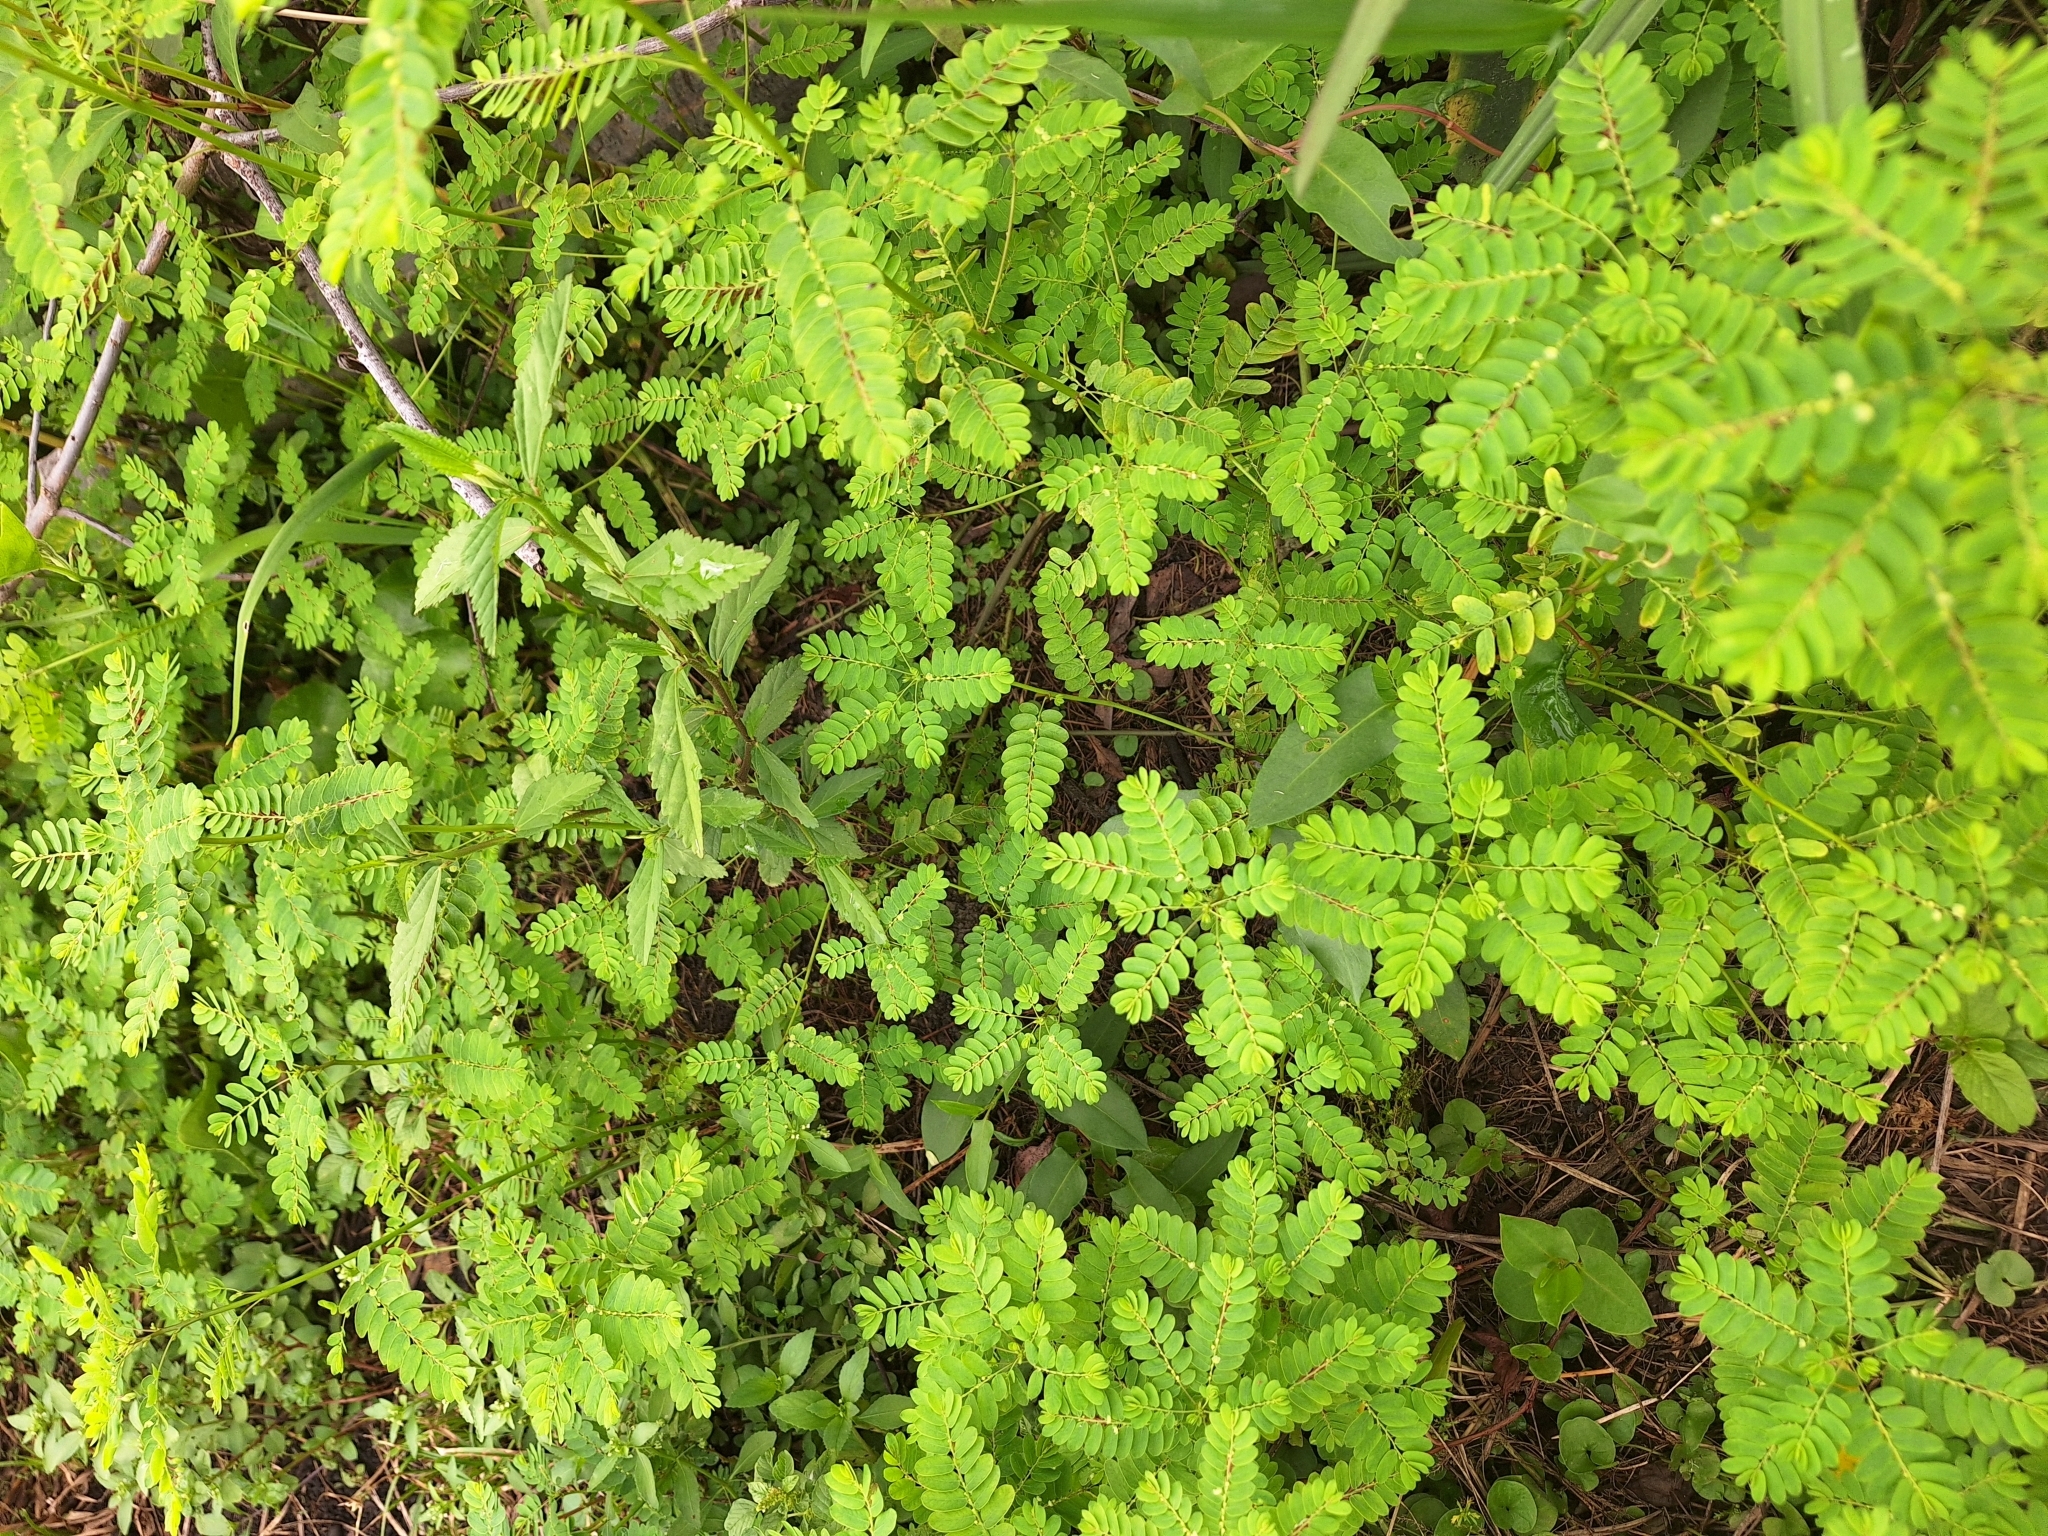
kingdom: Plantae
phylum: Tracheophyta
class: Magnoliopsida
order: Malpighiales
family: Phyllanthaceae
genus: Phyllanthus
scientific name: Phyllanthus niruri
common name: Niruri
